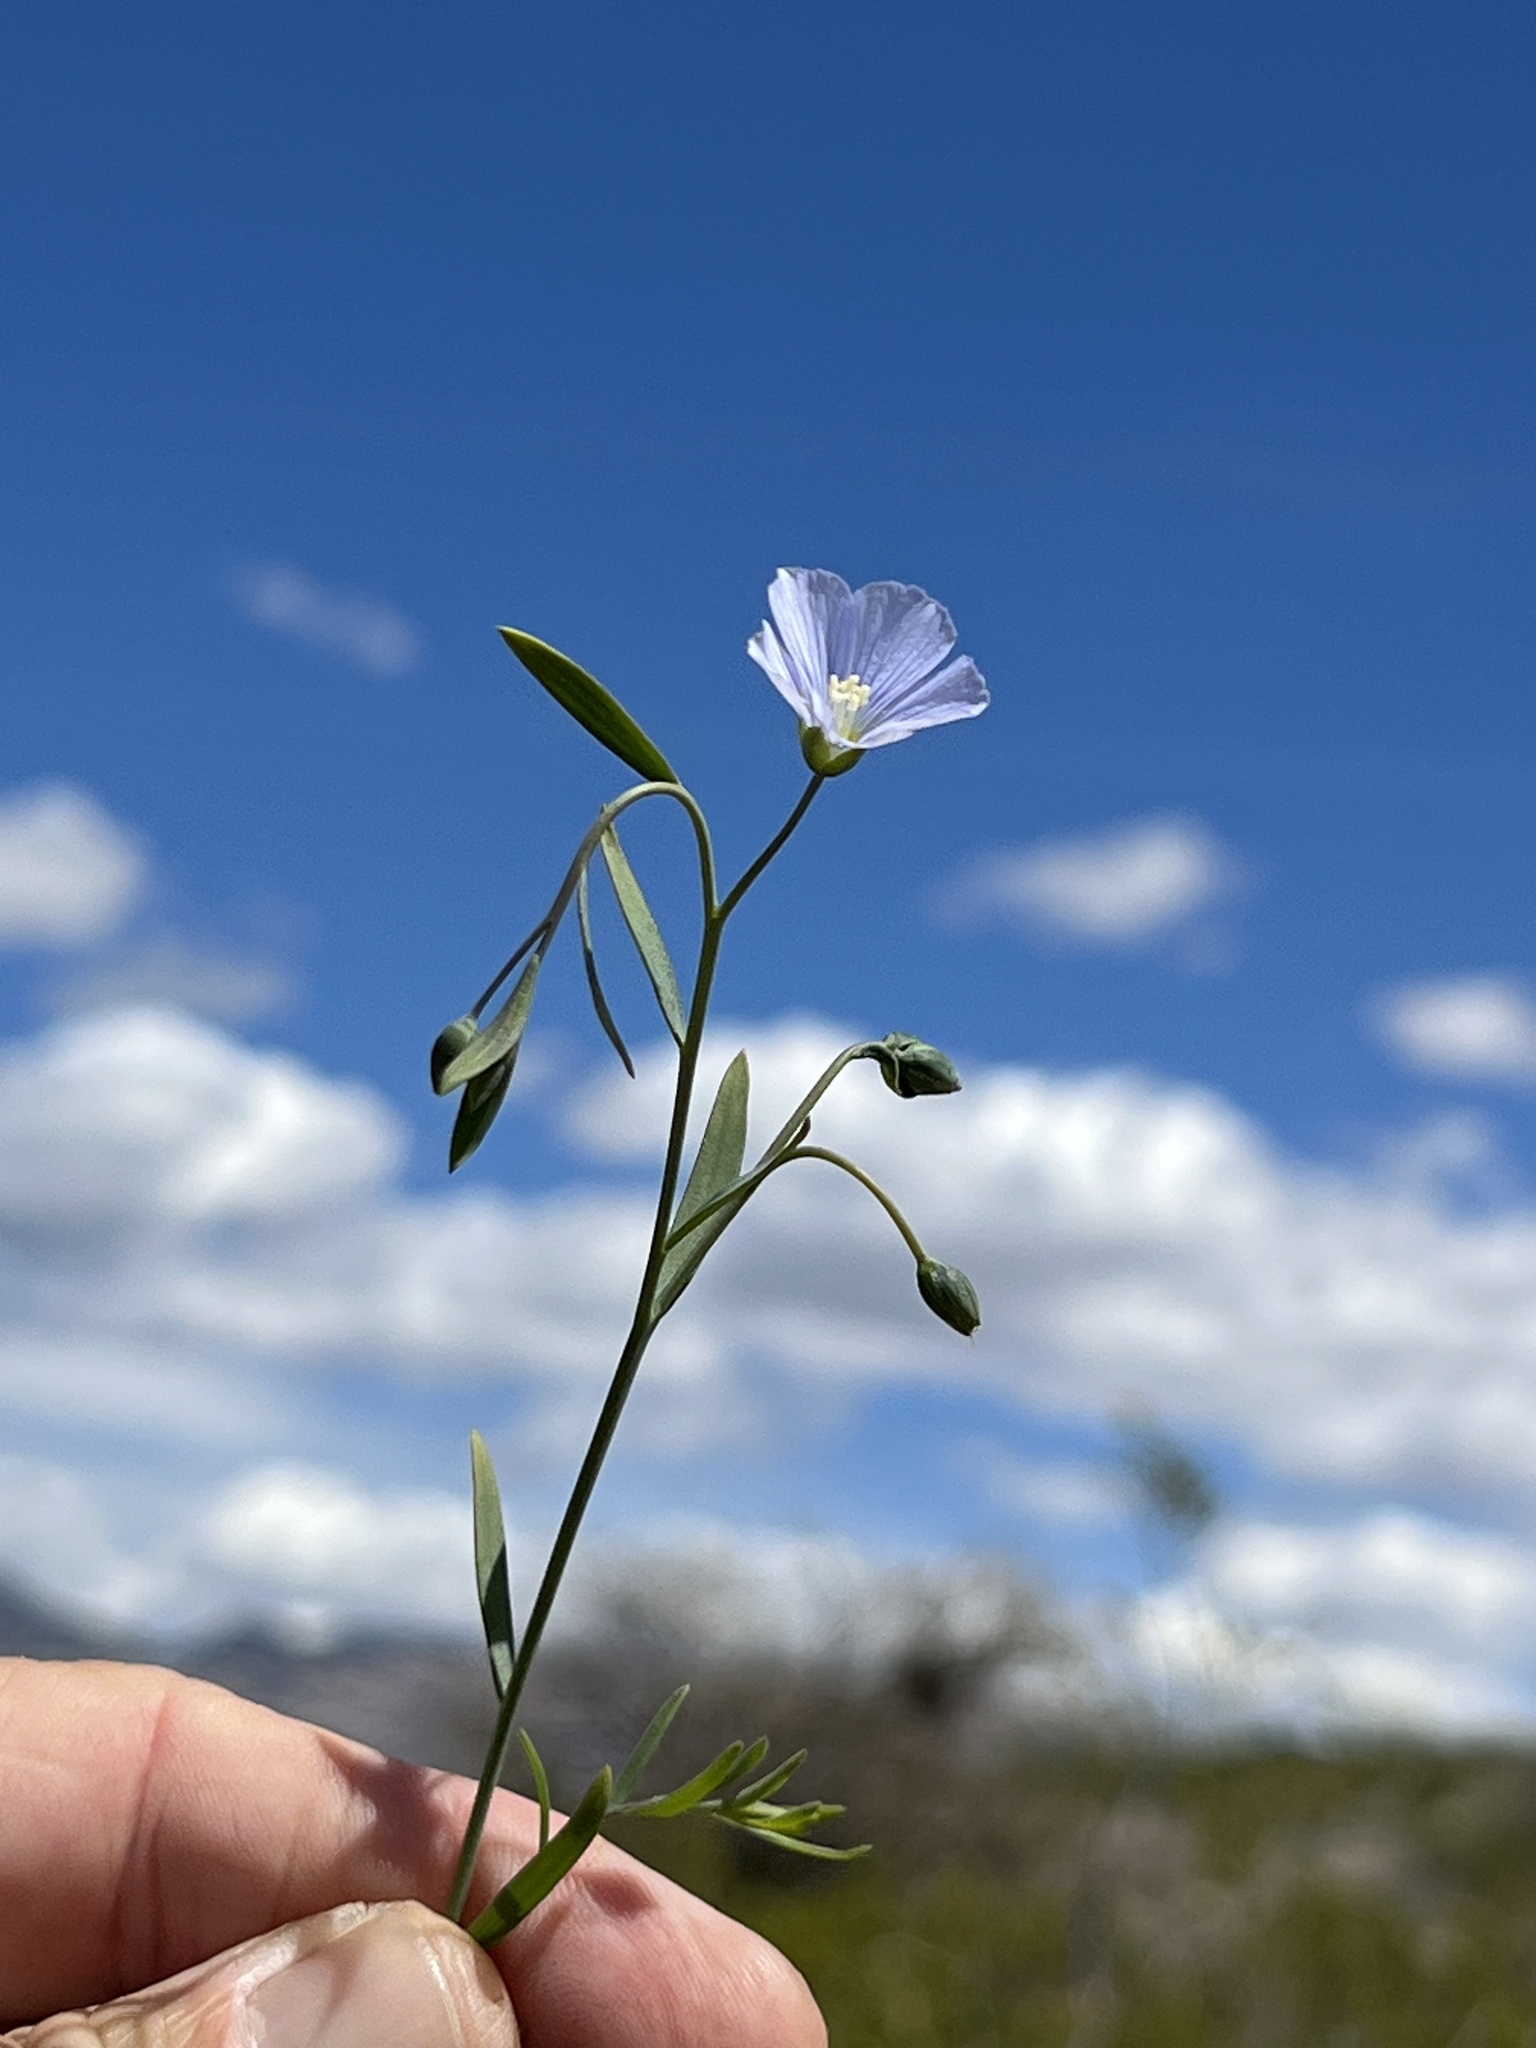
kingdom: Plantae
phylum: Tracheophyta
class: Magnoliopsida
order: Solanales
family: Convolvulaceae
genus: Evolvulus
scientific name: Evolvulus arizonicus
